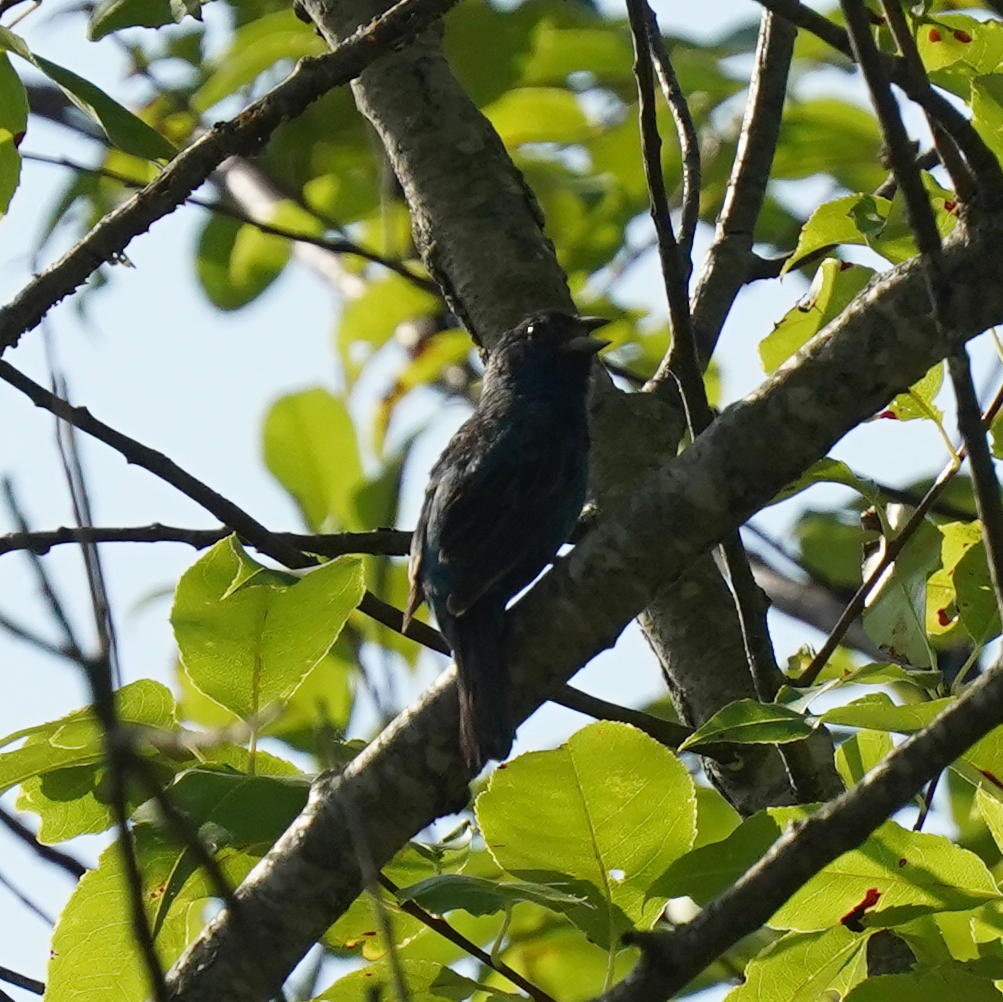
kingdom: Animalia
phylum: Chordata
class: Aves
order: Passeriformes
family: Cardinalidae
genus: Passerina
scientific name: Passerina cyanea
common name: Indigo bunting
